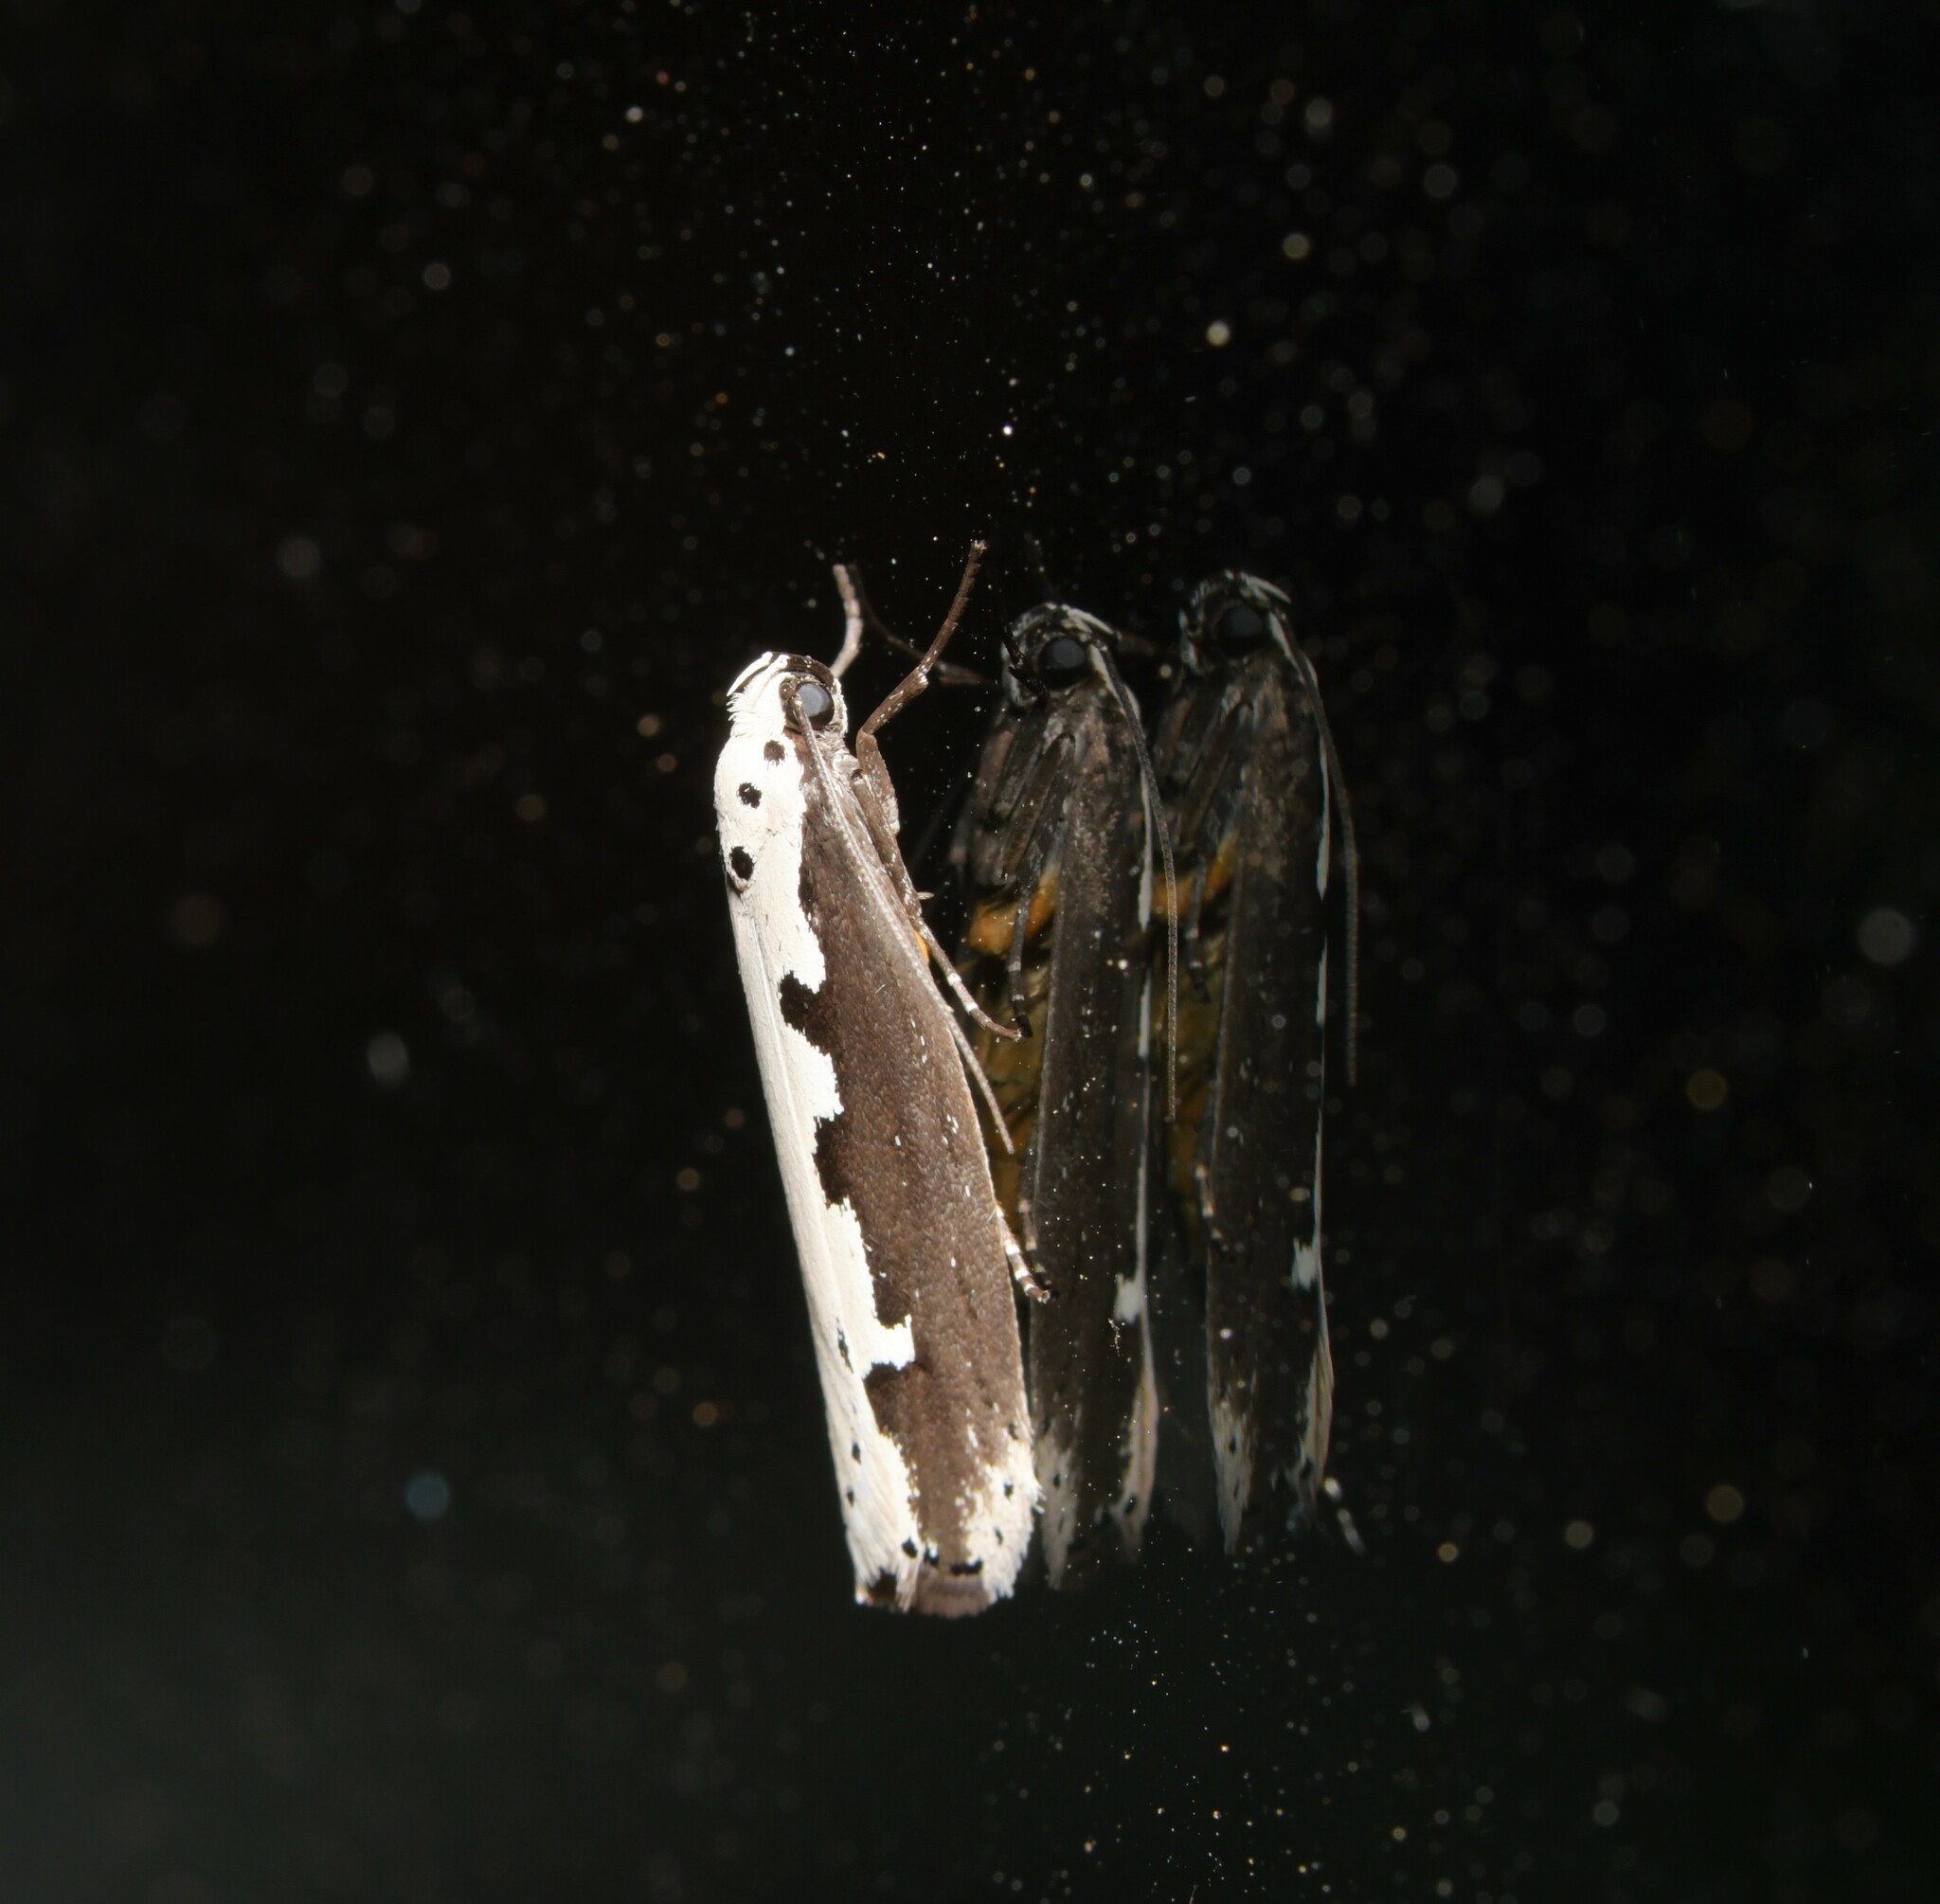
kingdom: Animalia
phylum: Arthropoda
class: Insecta
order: Lepidoptera
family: Ethmiidae
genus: Ethmia
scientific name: Ethmia bipunctella
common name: Bordered ermel
